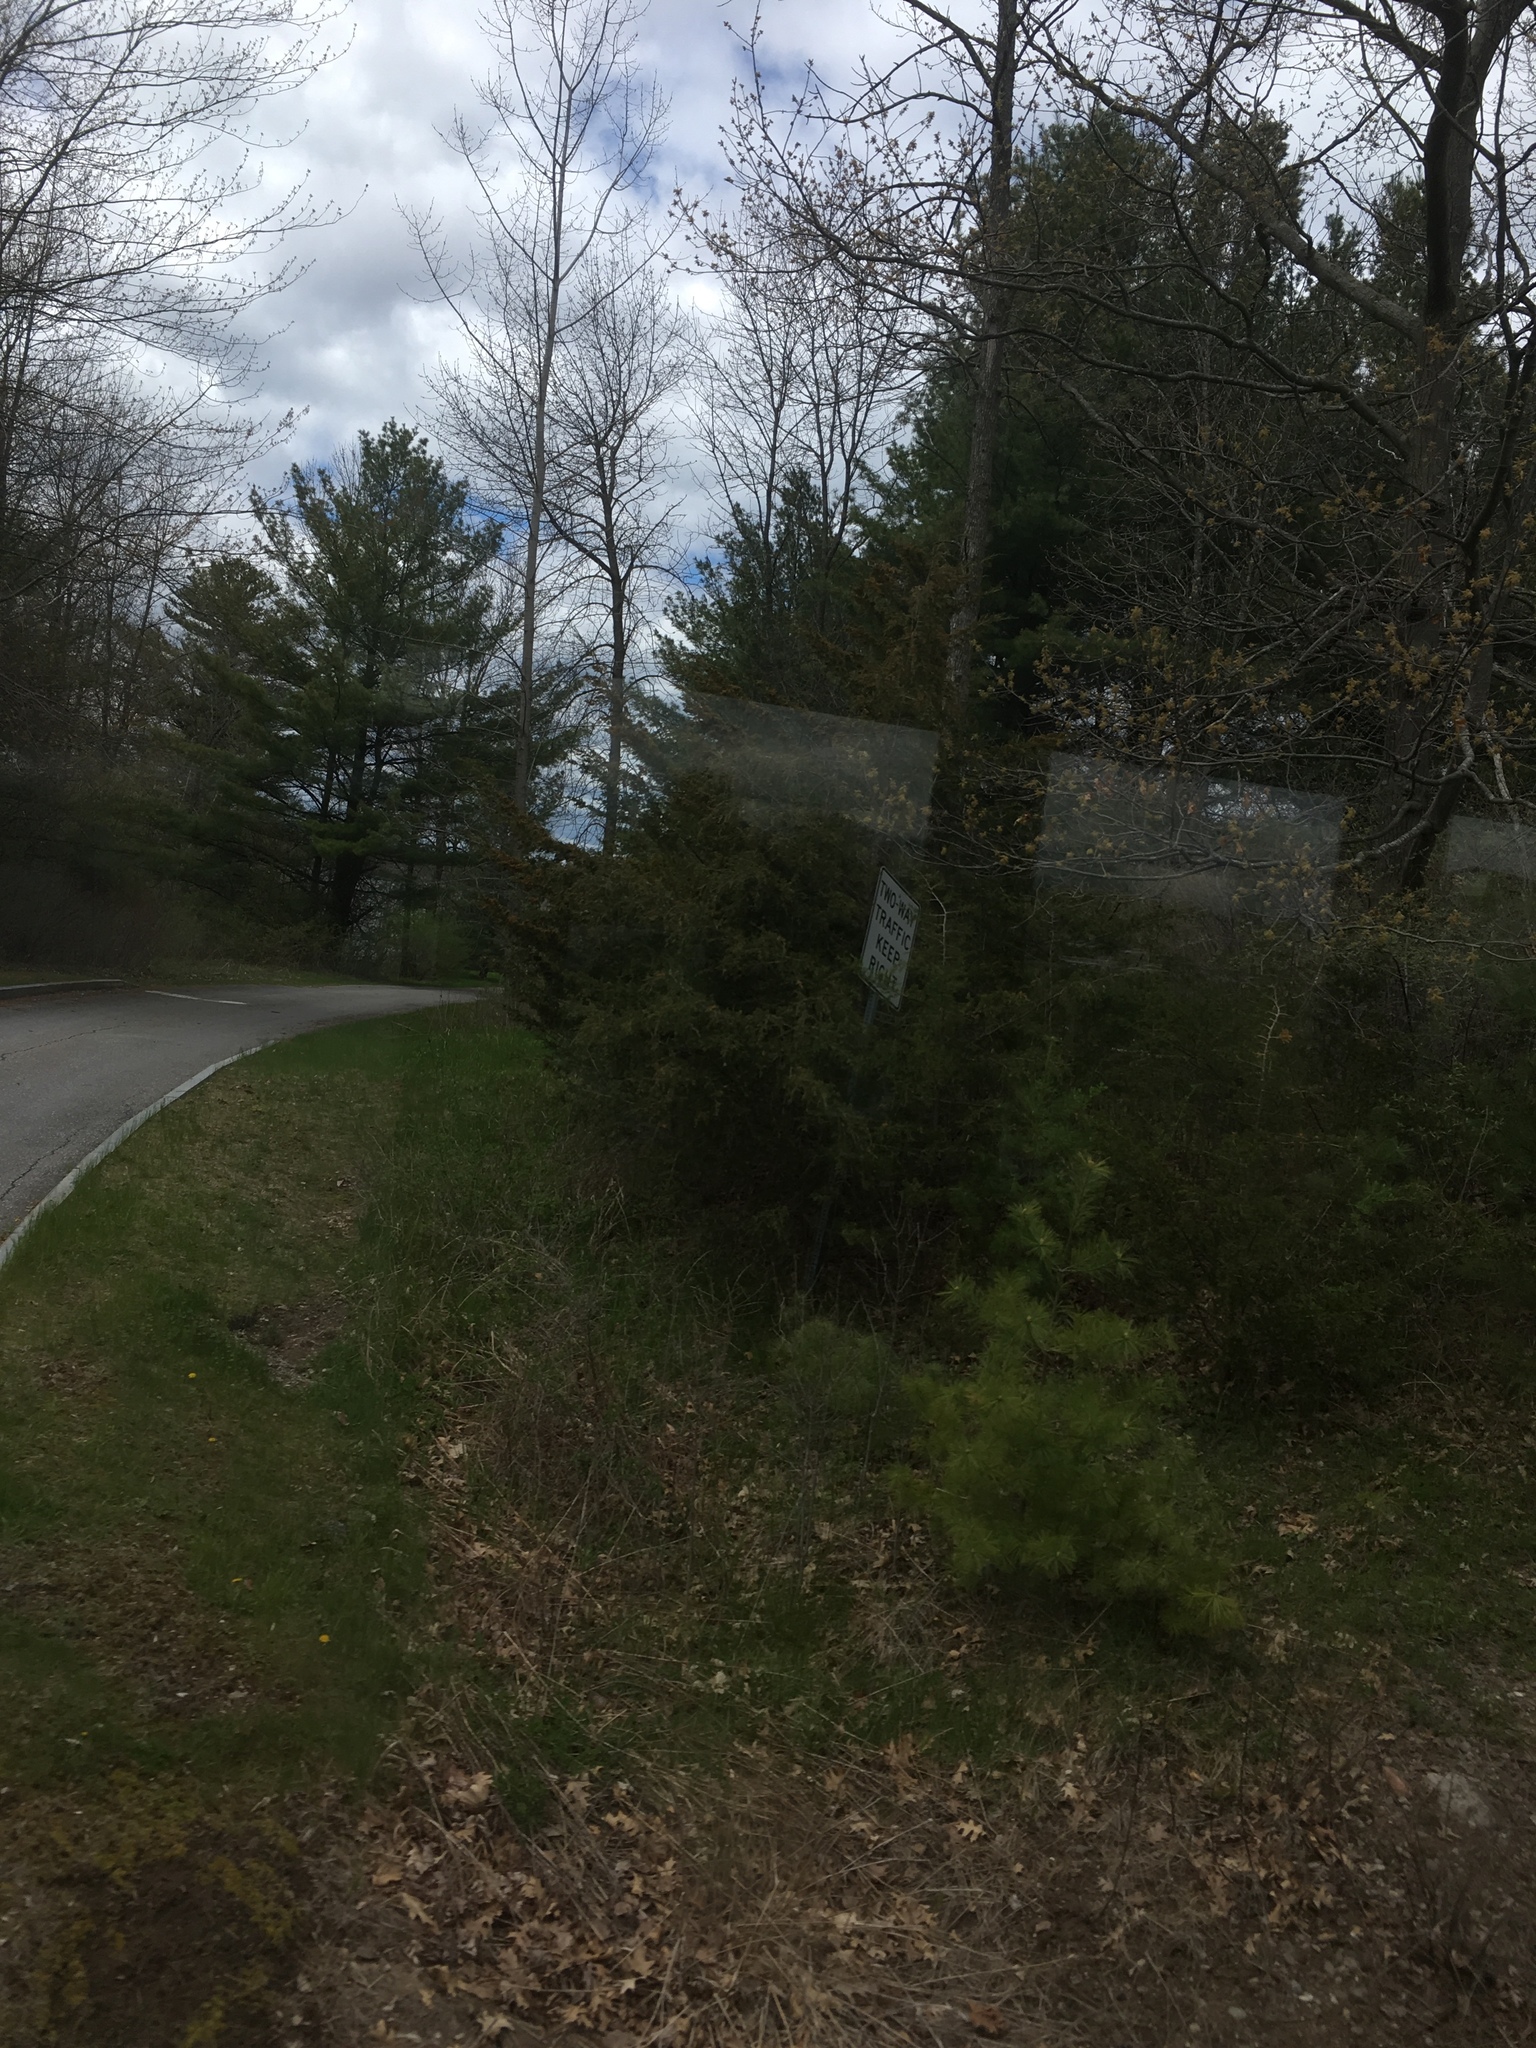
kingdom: Plantae
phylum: Tracheophyta
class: Pinopsida
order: Pinales
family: Cupressaceae
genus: Juniperus
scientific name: Juniperus virginiana
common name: Red juniper
